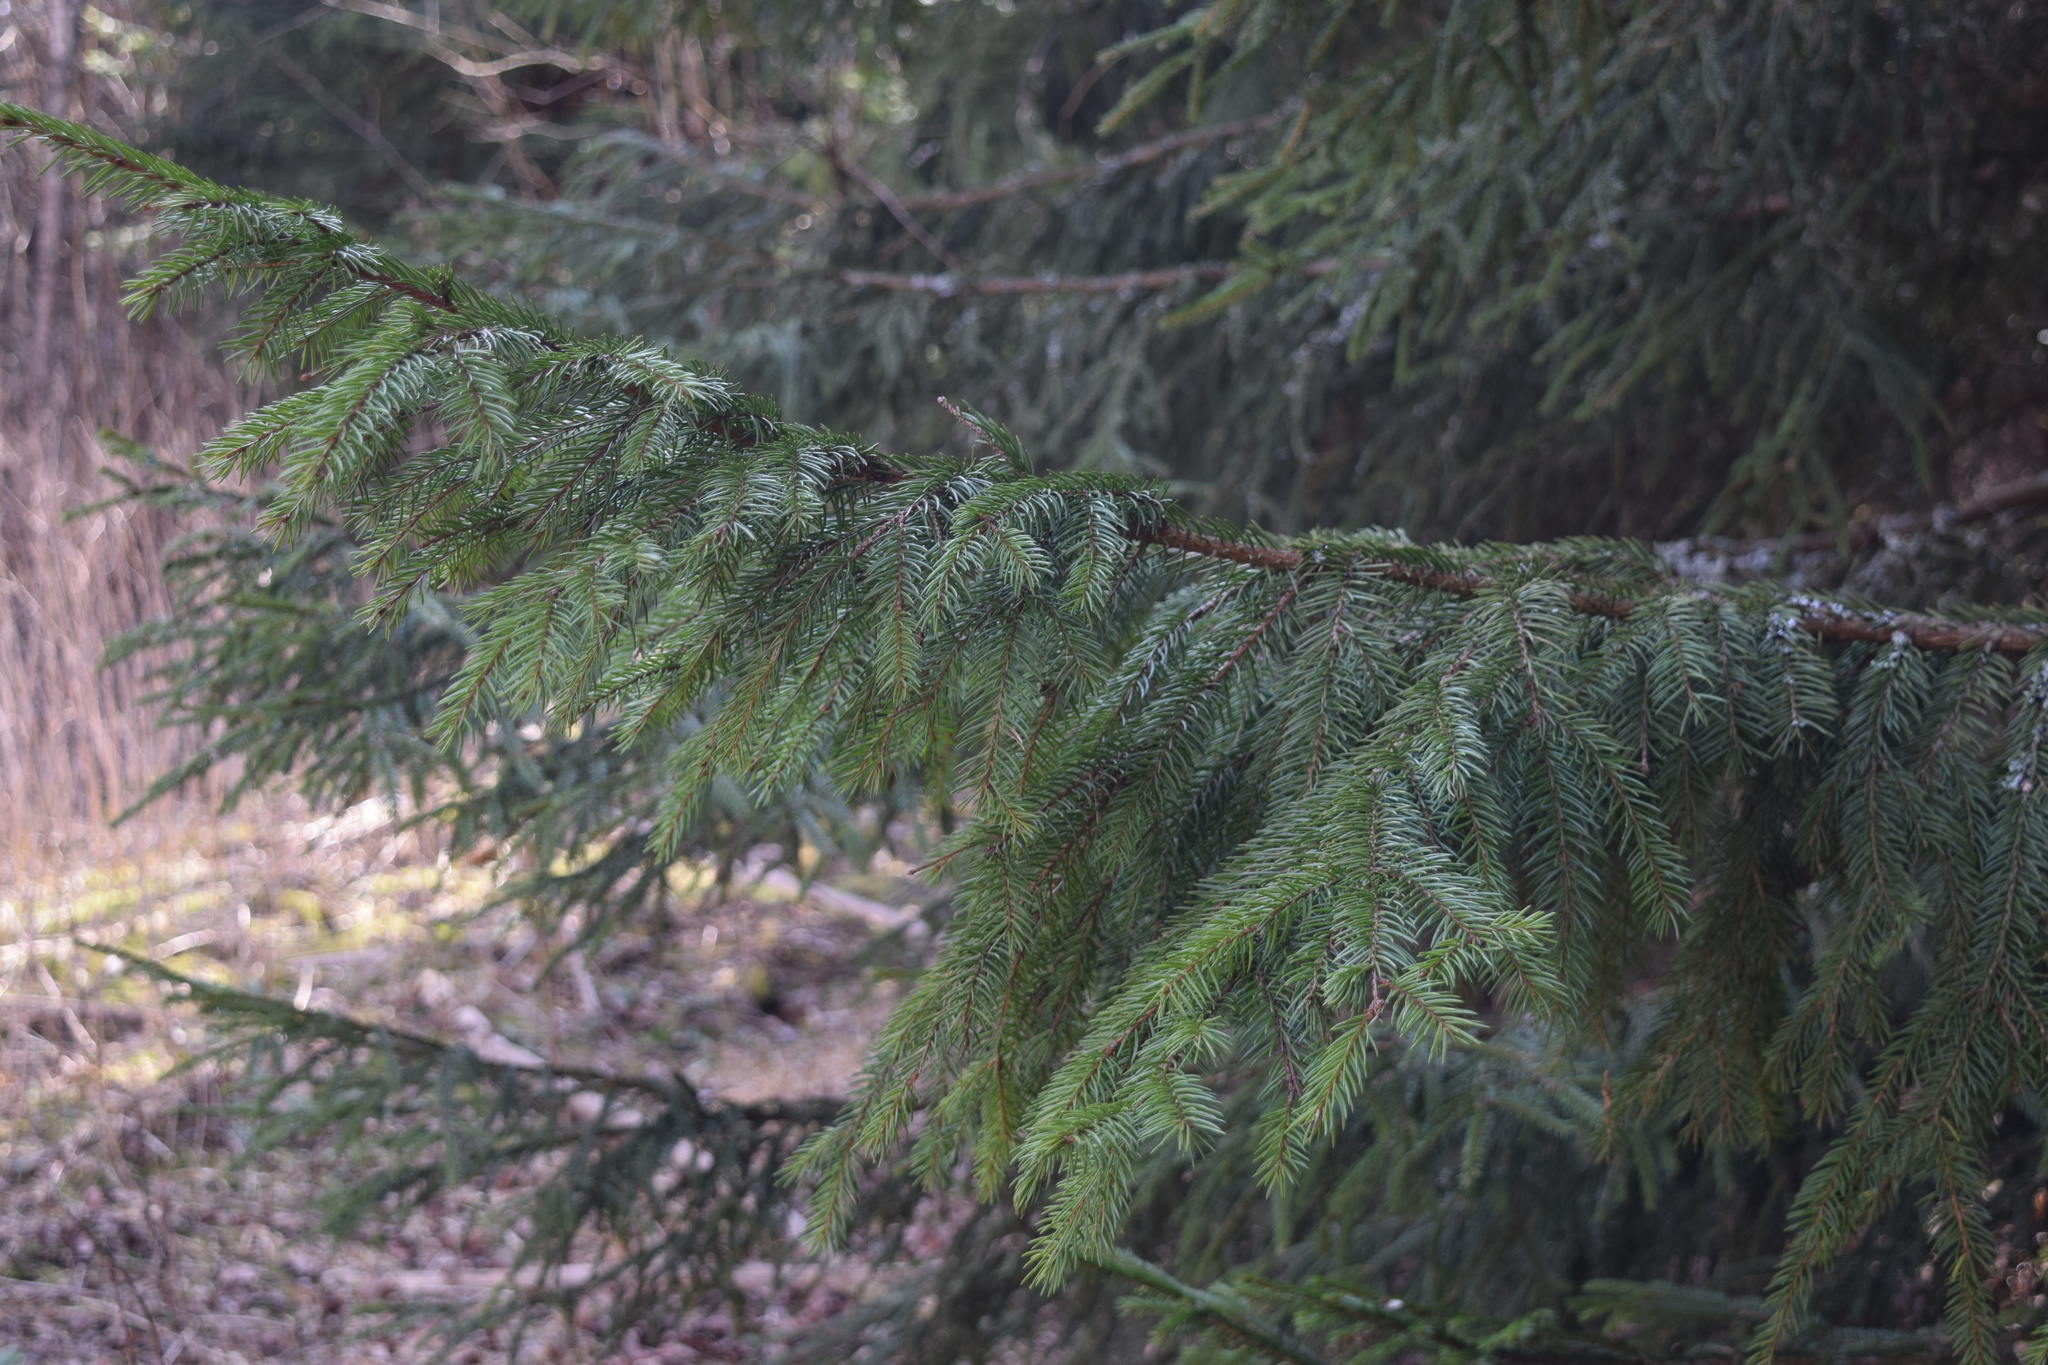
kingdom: Plantae
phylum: Tracheophyta
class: Pinopsida
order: Pinales
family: Pinaceae
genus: Picea
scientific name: Picea abies
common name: Norway spruce
